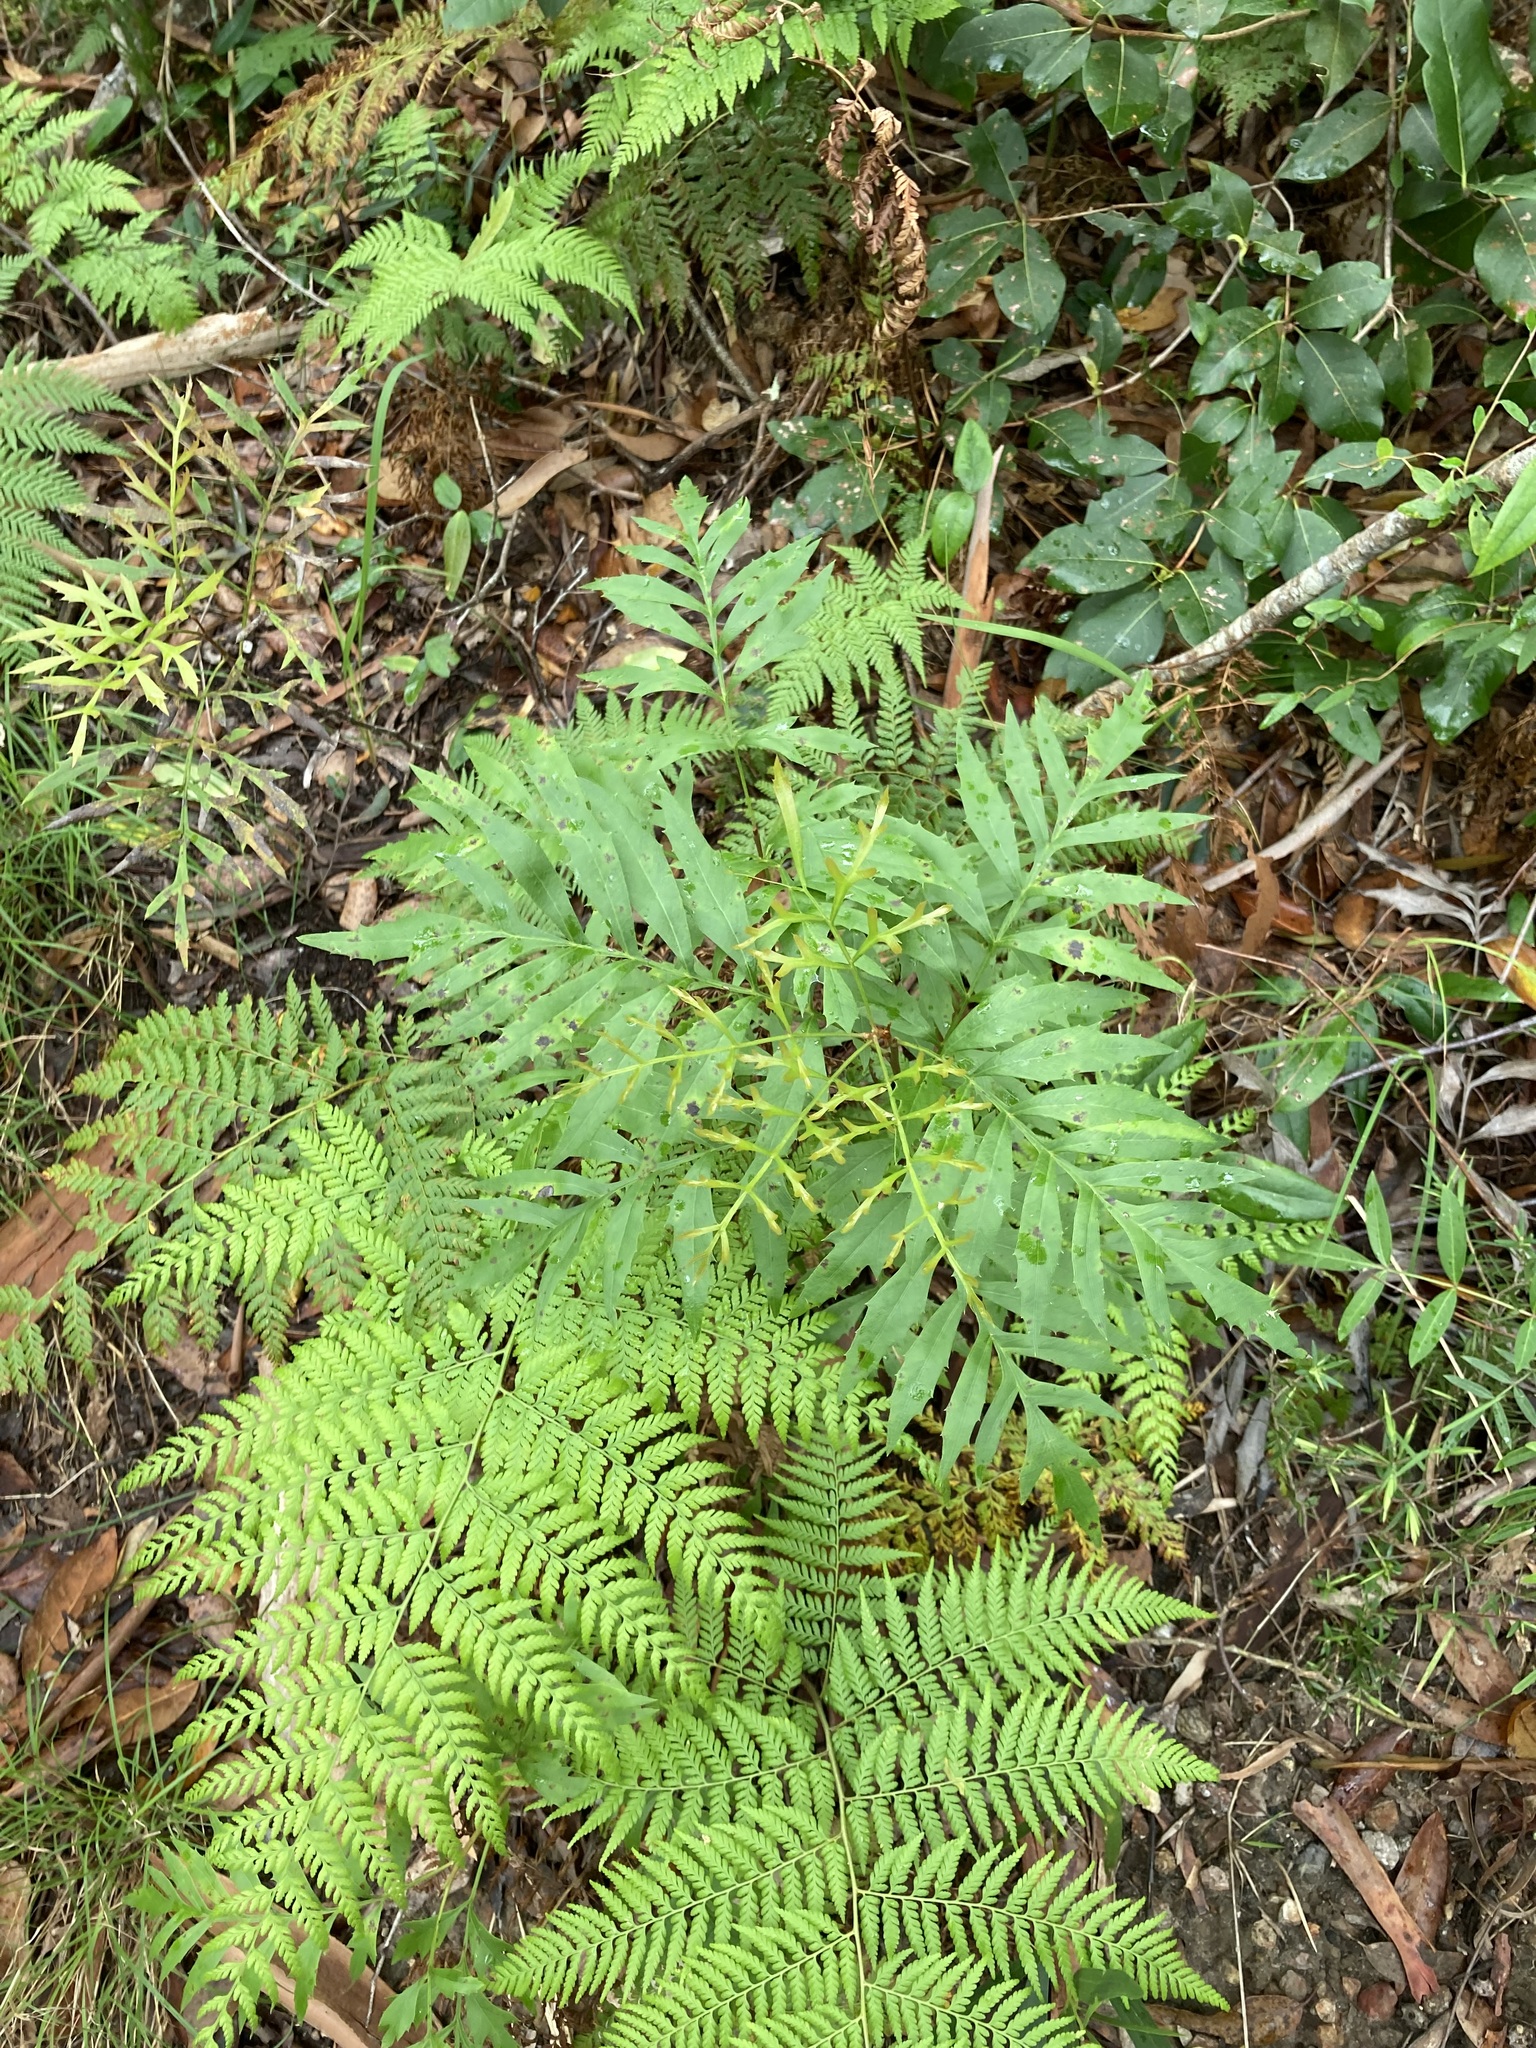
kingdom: Plantae
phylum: Tracheophyta
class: Magnoliopsida
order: Proteales
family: Proteaceae
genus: Lomatia
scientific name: Lomatia silaifolia
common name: Crinklebush
